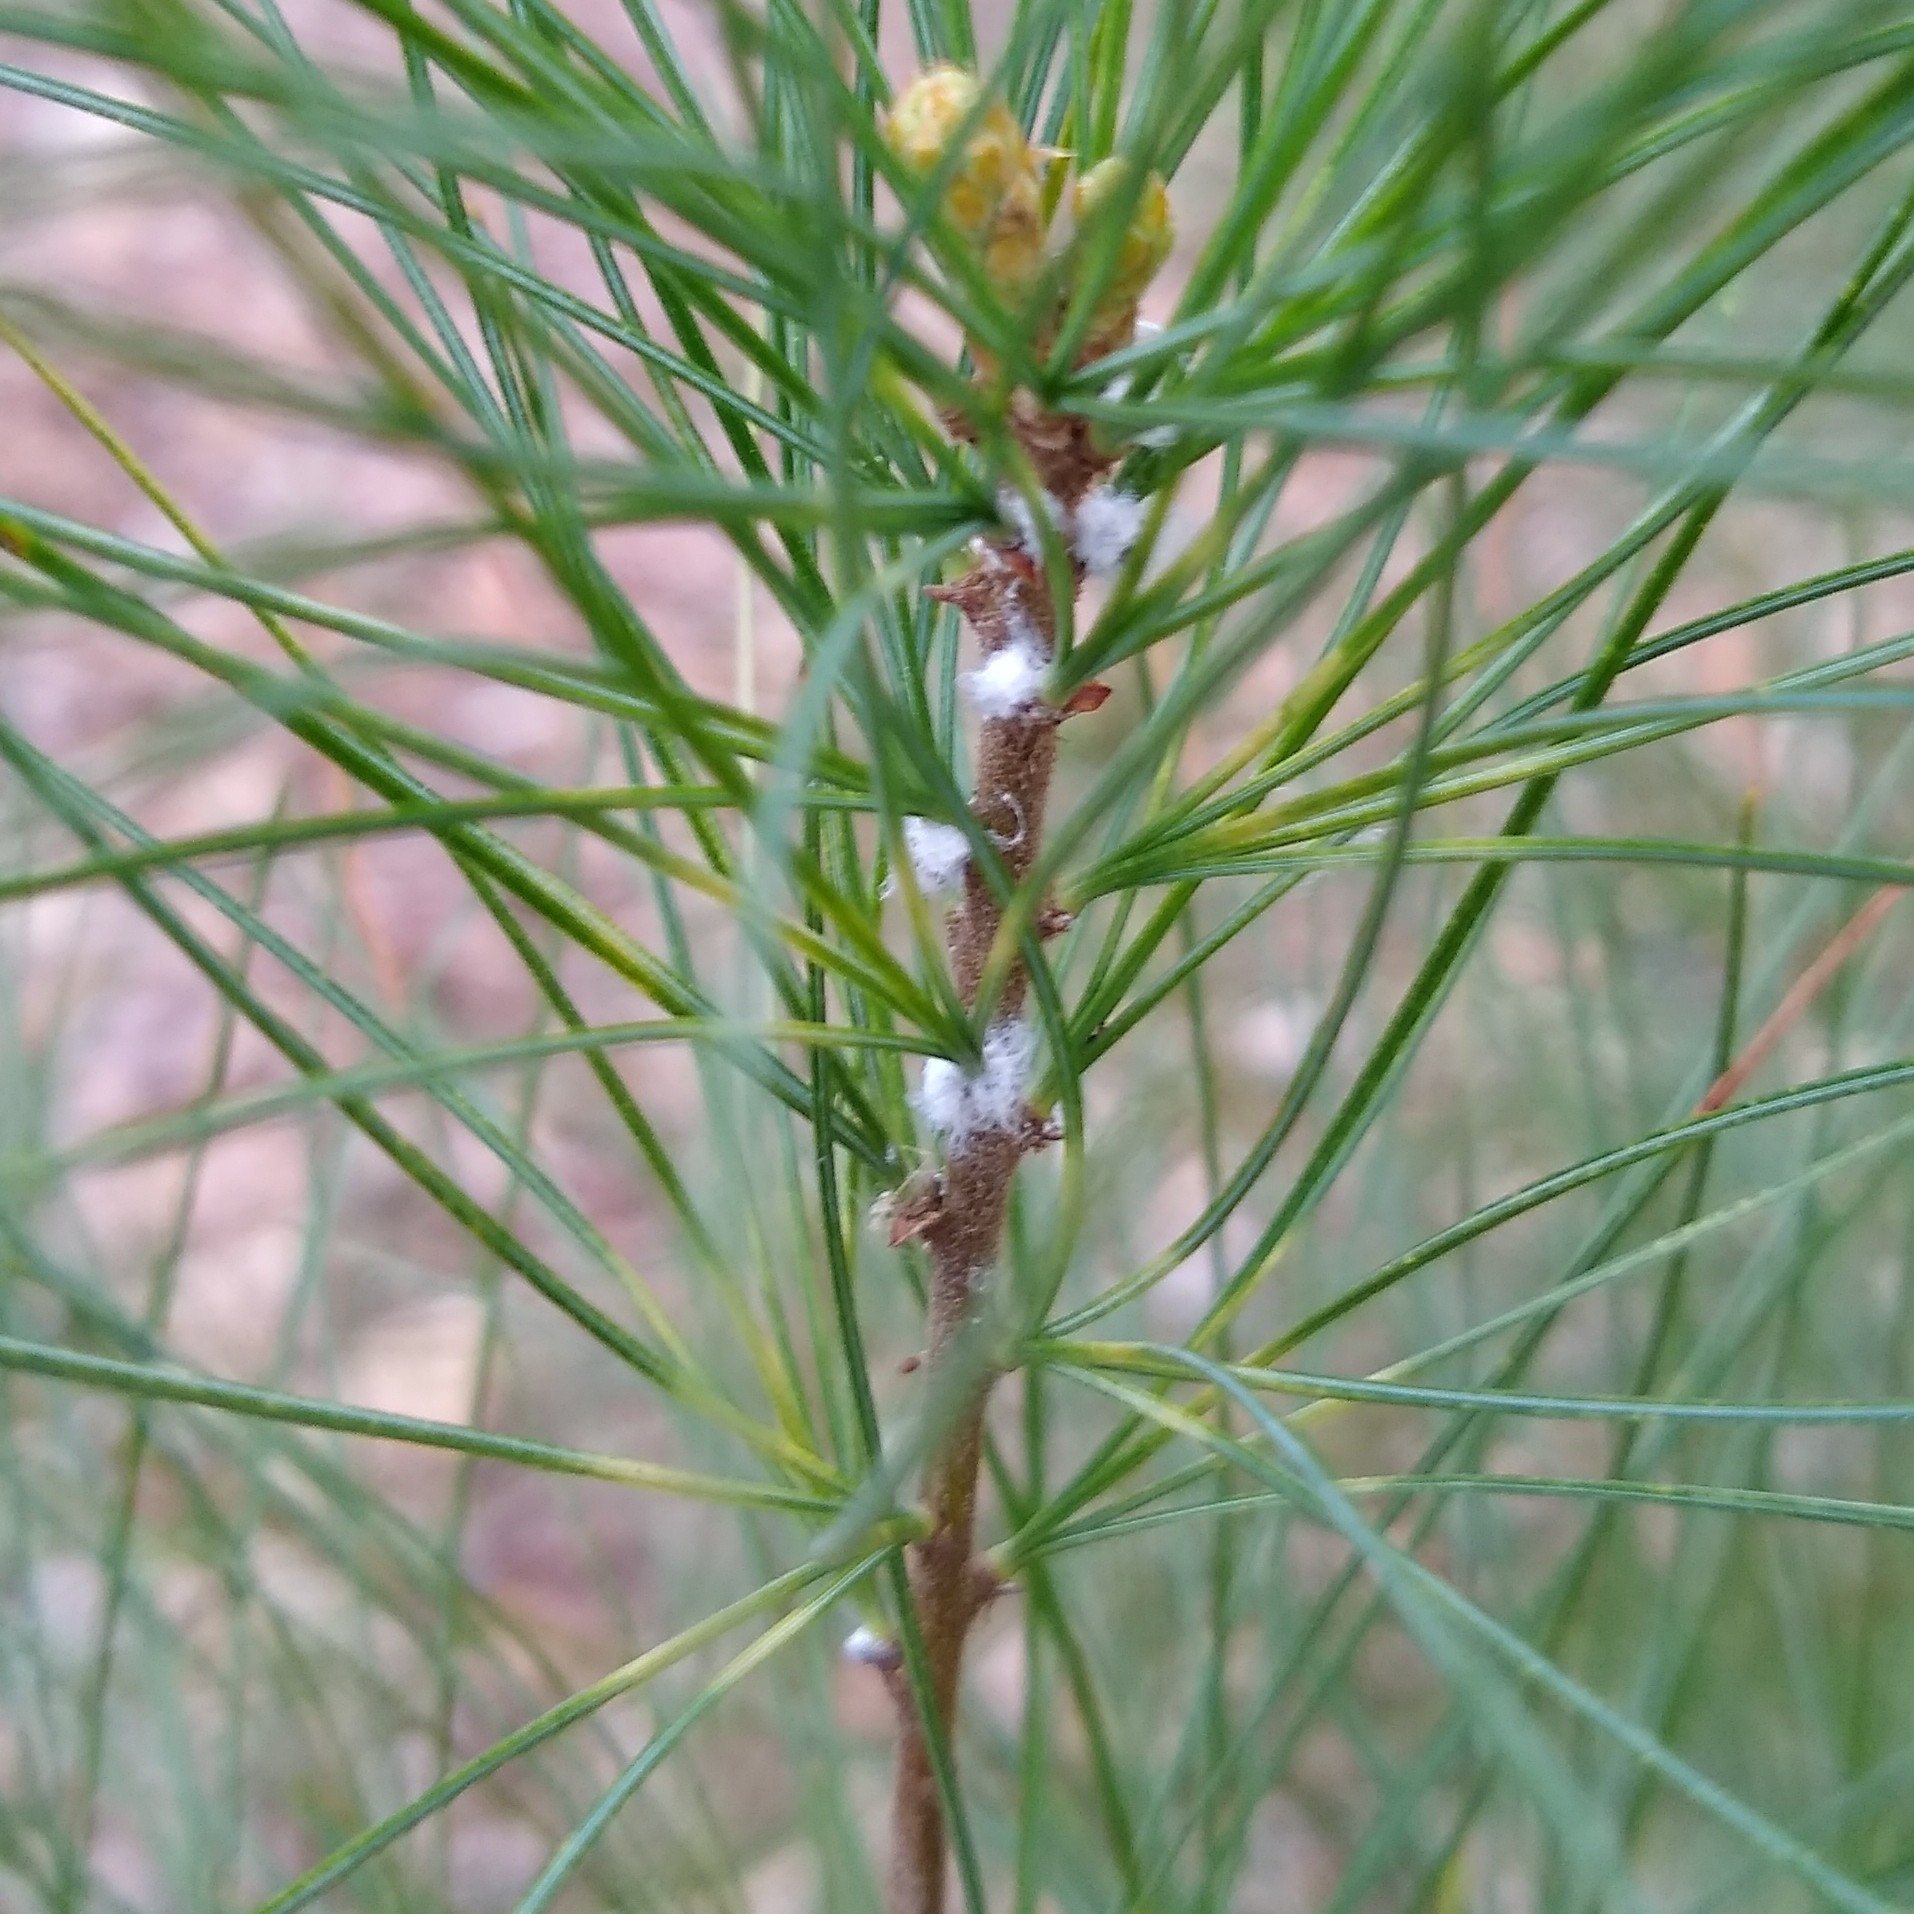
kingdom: Animalia
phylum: Arthropoda
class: Insecta
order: Hemiptera
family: Adelgidae
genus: Pineus
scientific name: Pineus strobi
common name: Pine bark adelgid
